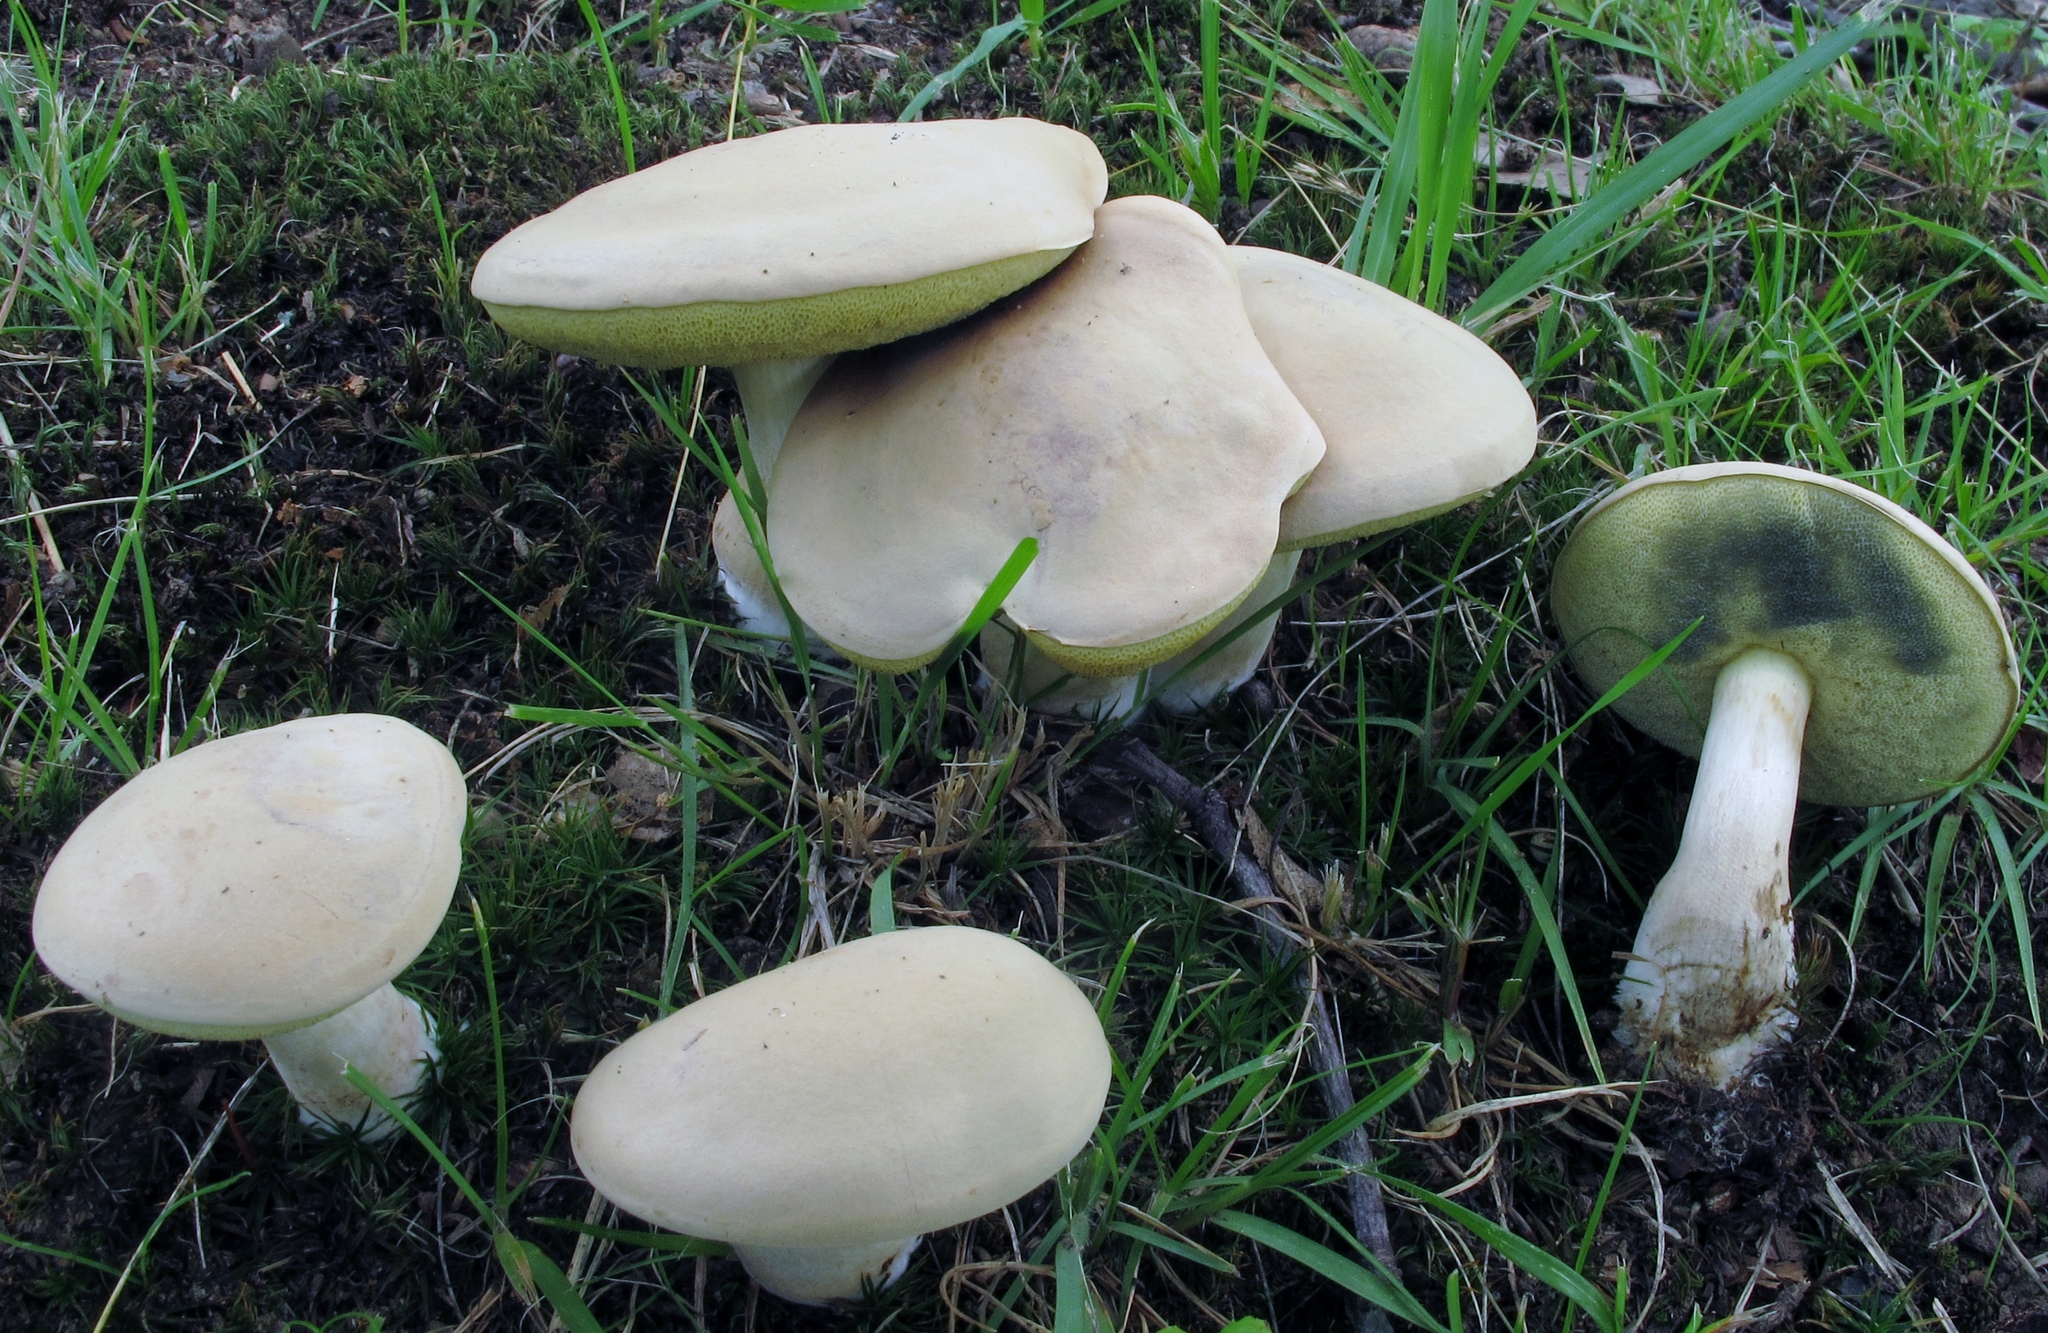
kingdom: Fungi
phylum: Basidiomycota
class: Agaricomycetes
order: Boletales
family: Boletaceae
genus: Imleria
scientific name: Imleria pallida
